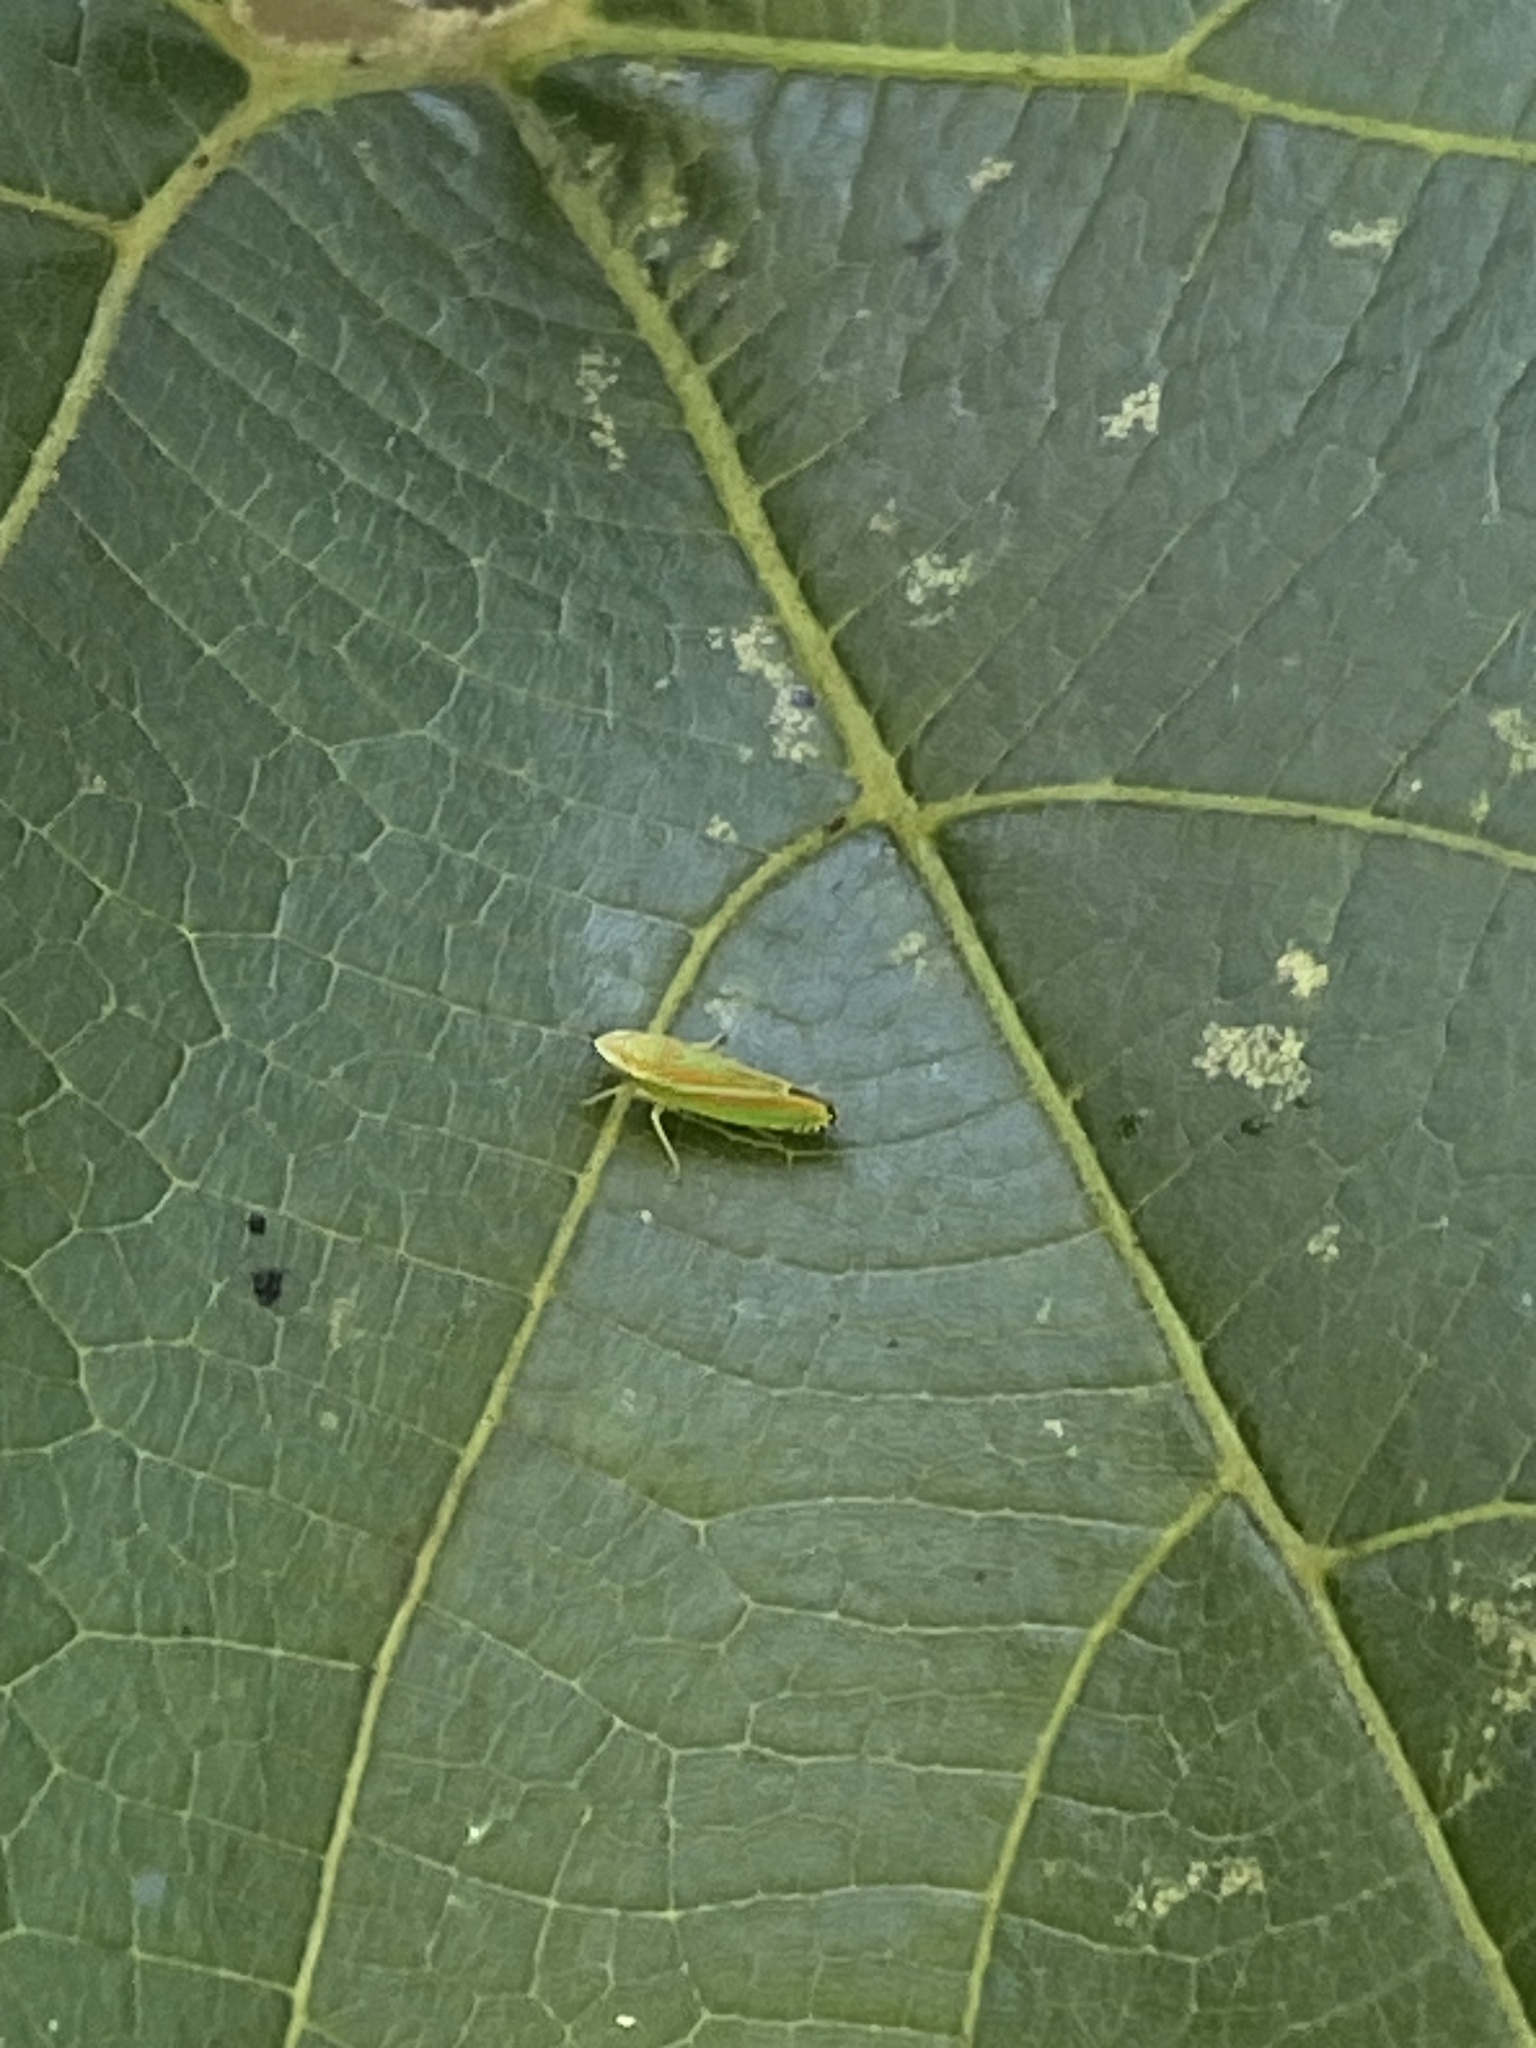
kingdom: Animalia
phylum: Arthropoda
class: Insecta
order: Hemiptera
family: Cicadellidae
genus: Graphocephala
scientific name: Graphocephala versuta
